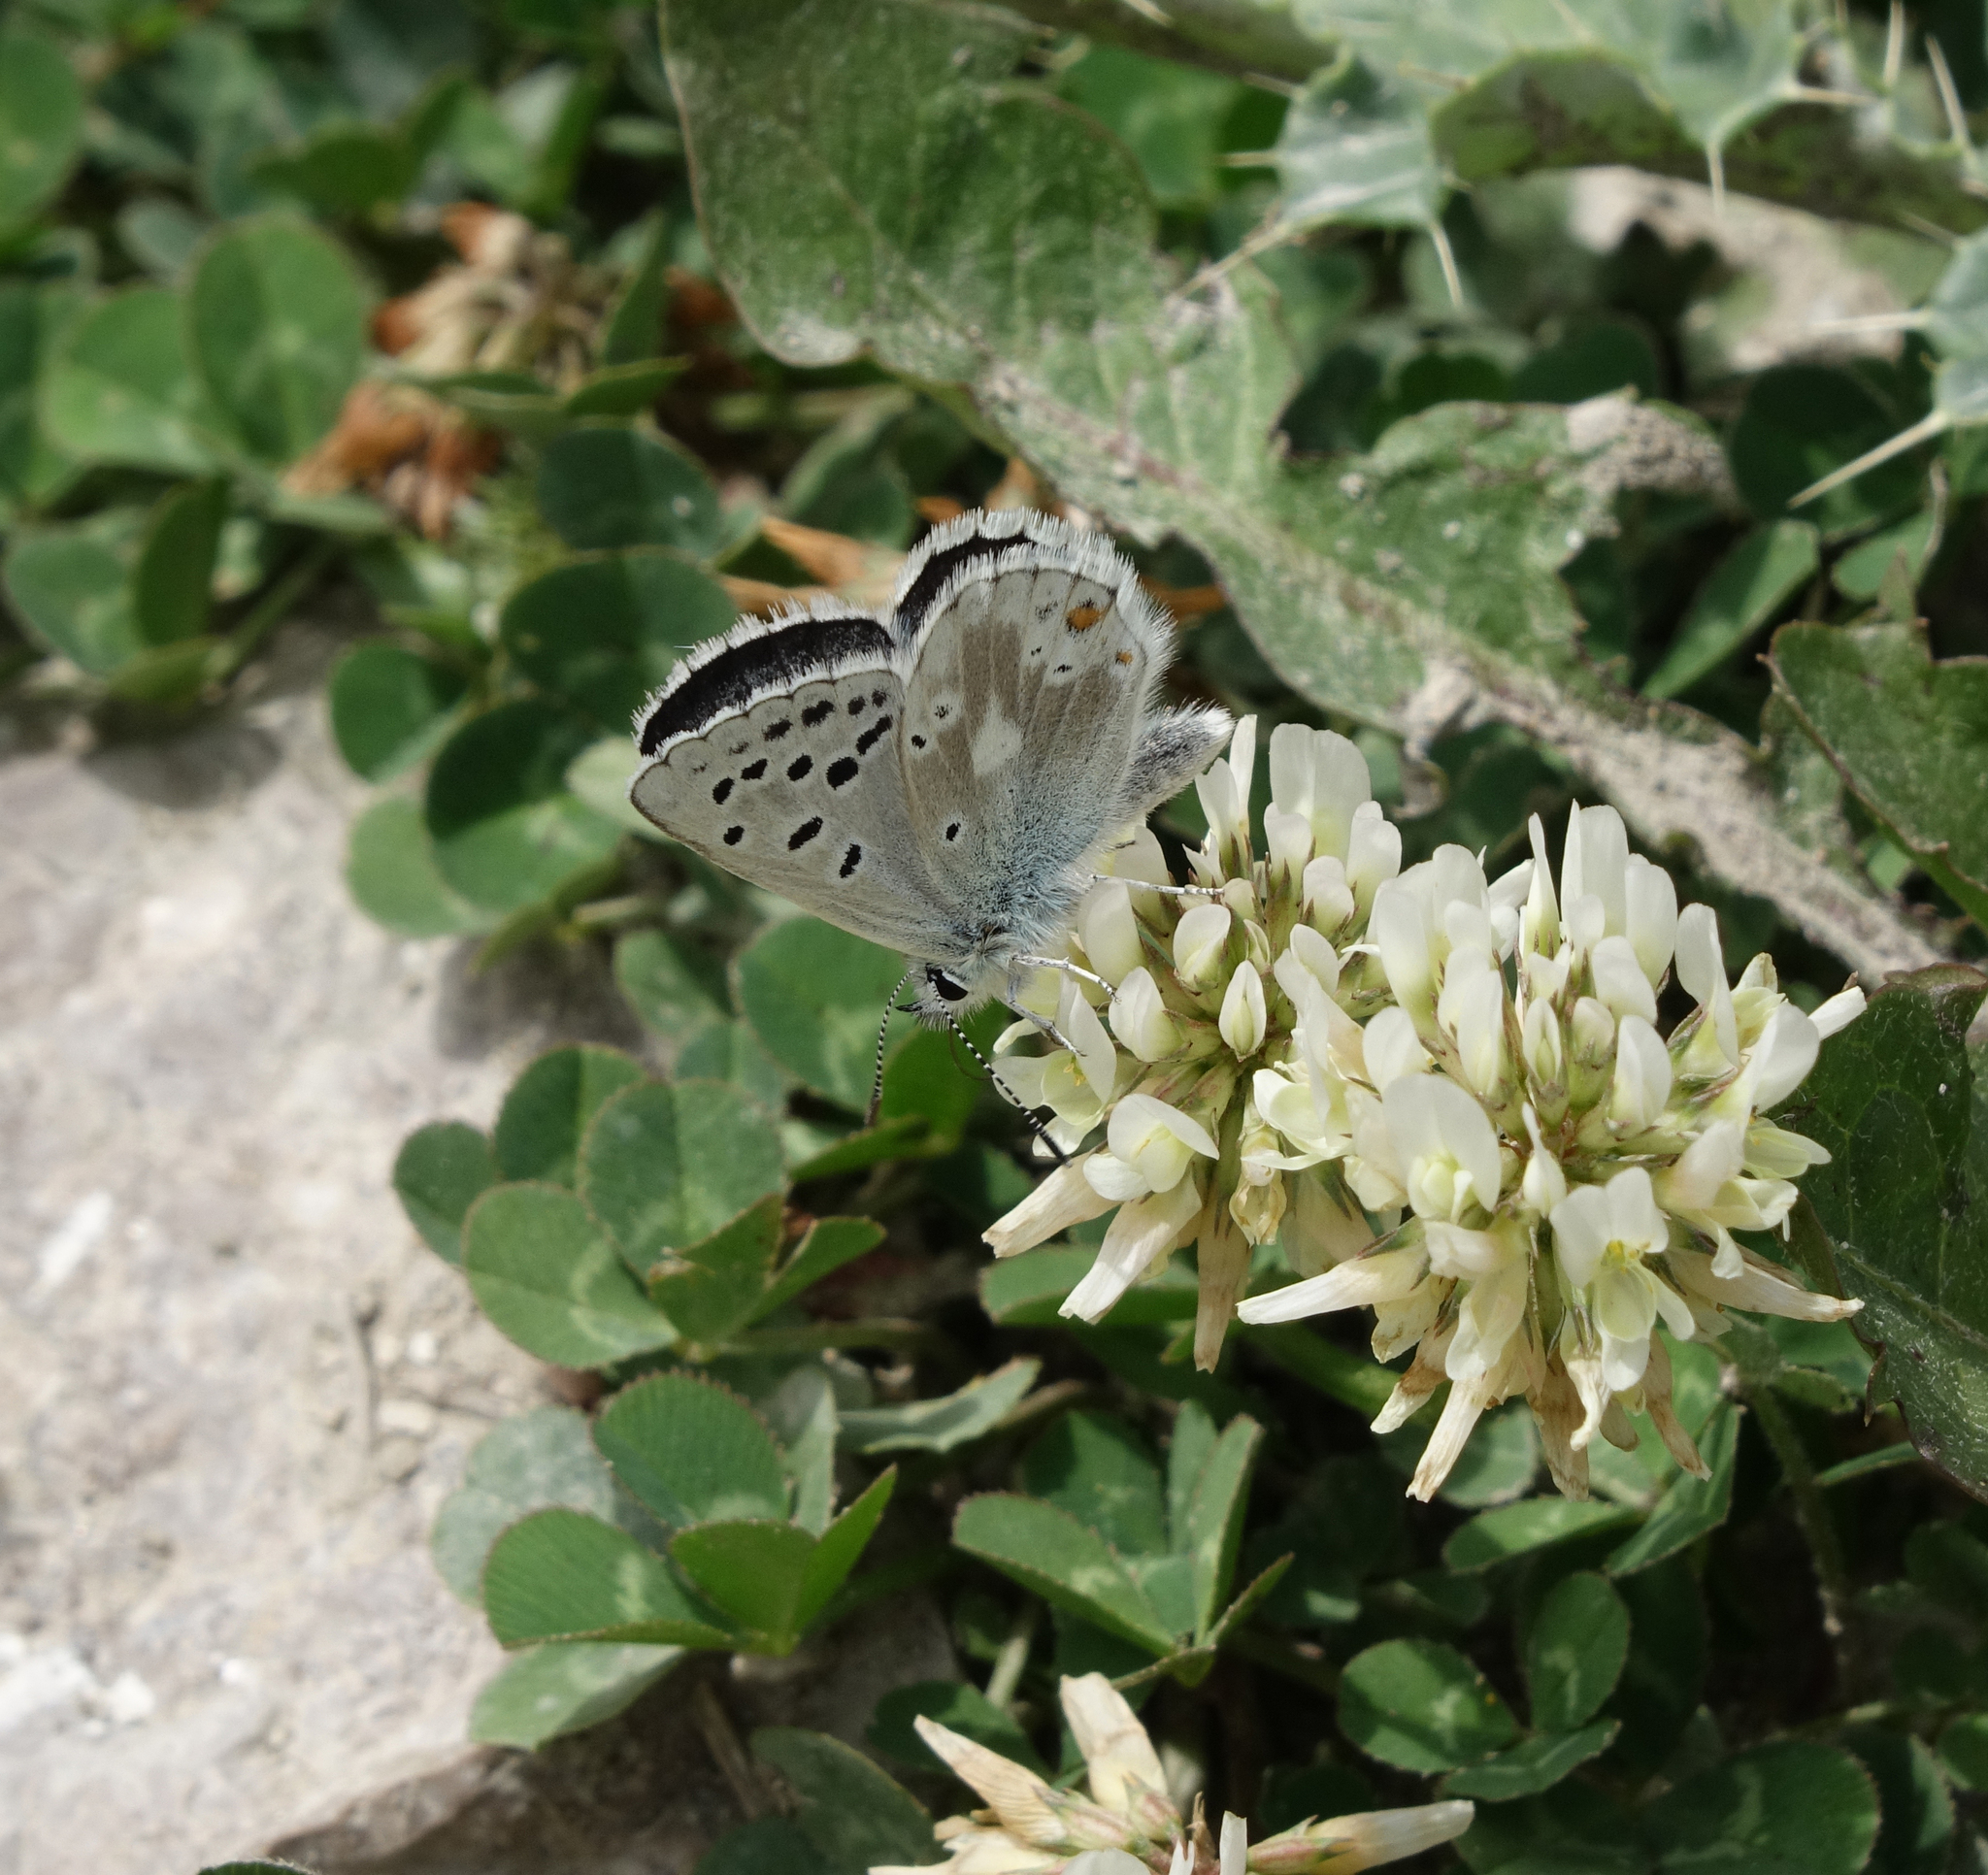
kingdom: Animalia
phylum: Arthropoda
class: Insecta
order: Lepidoptera
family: Lycaenidae
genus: Agriades
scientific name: Agriades pyrenaica
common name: Gavarnie blue
